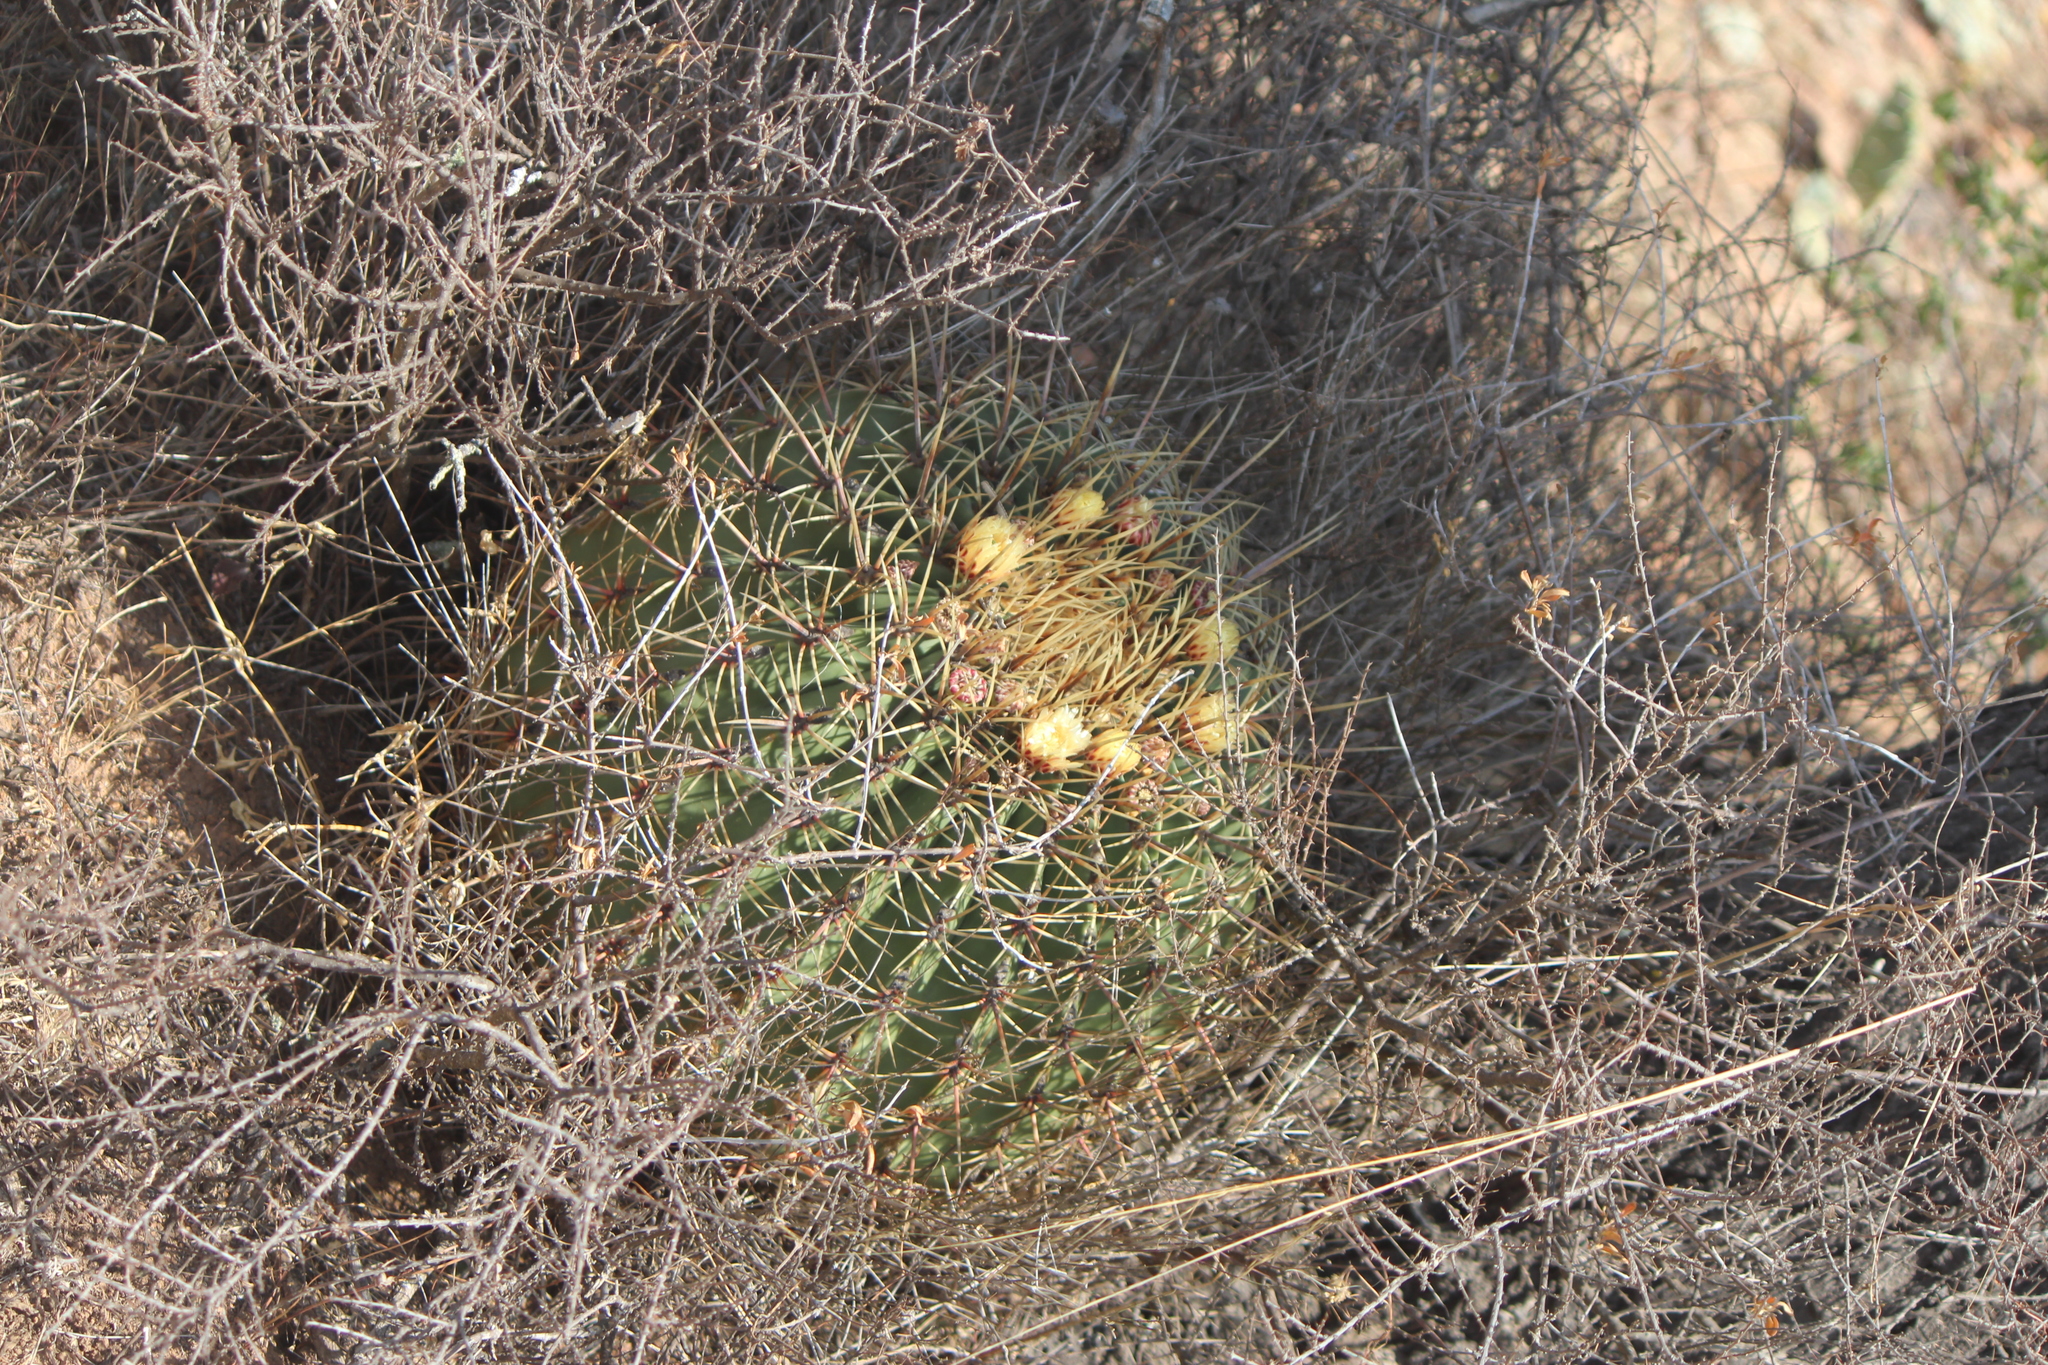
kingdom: Plantae
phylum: Tracheophyta
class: Magnoliopsida
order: Caryophyllales
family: Cactaceae
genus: Bisnaga
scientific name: Bisnaga histrix
